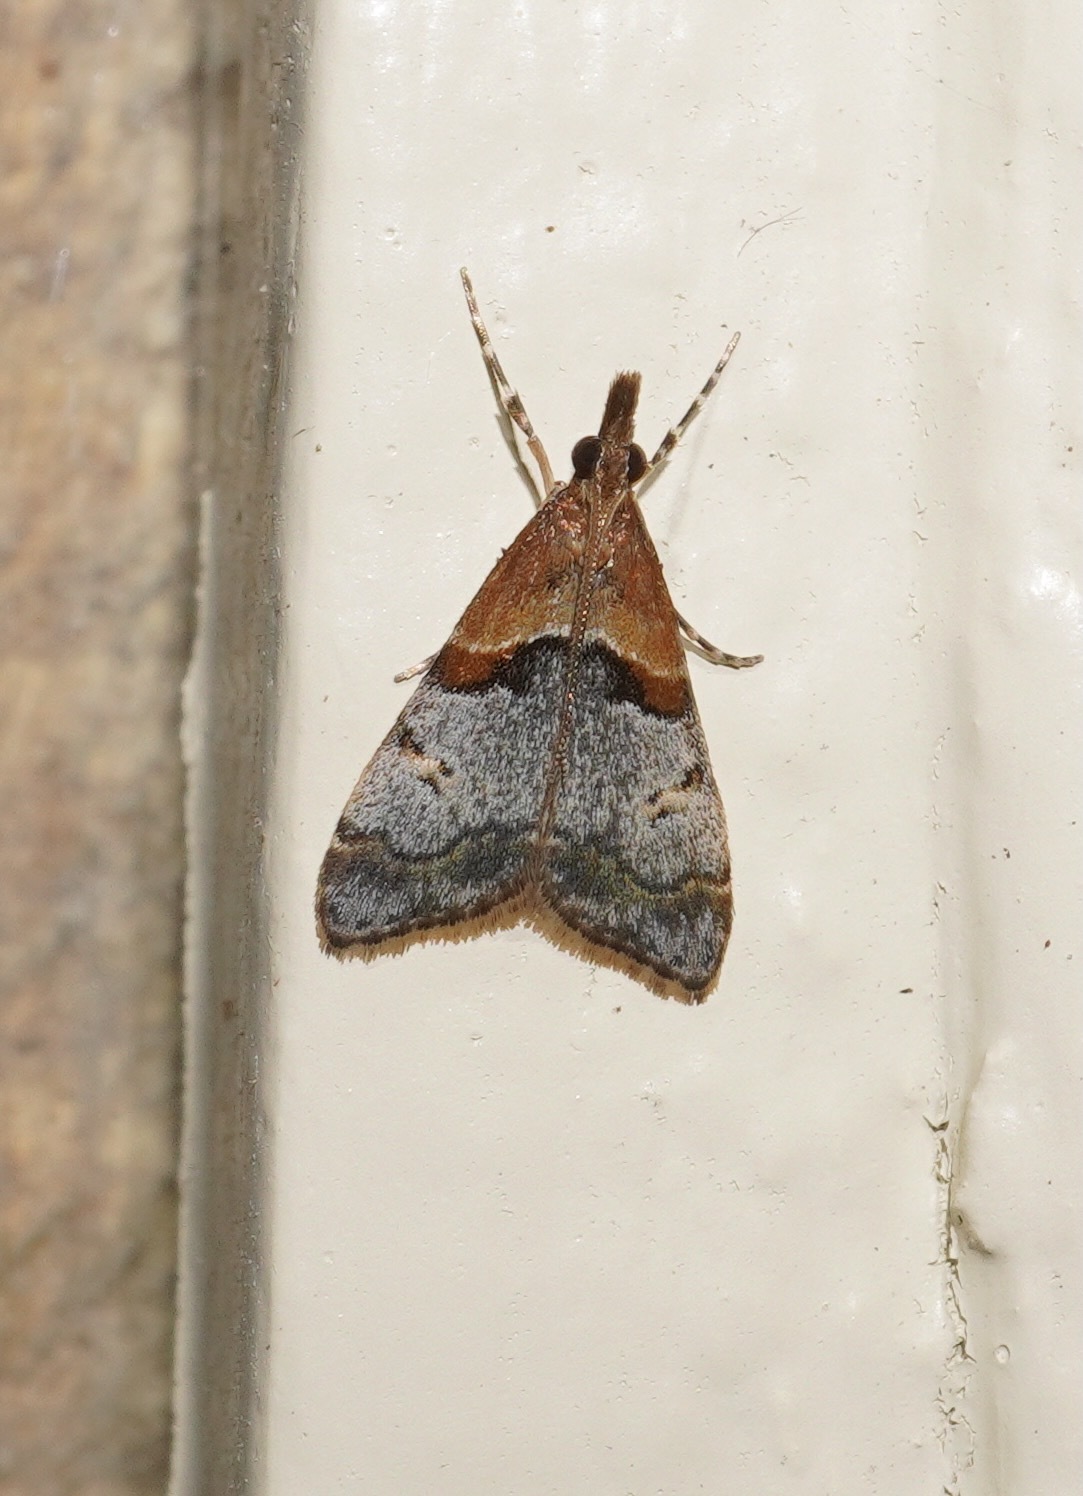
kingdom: Animalia
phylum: Arthropoda
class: Insecta
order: Lepidoptera
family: Crambidae
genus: Antiscopa
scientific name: Antiscopa epicomia
